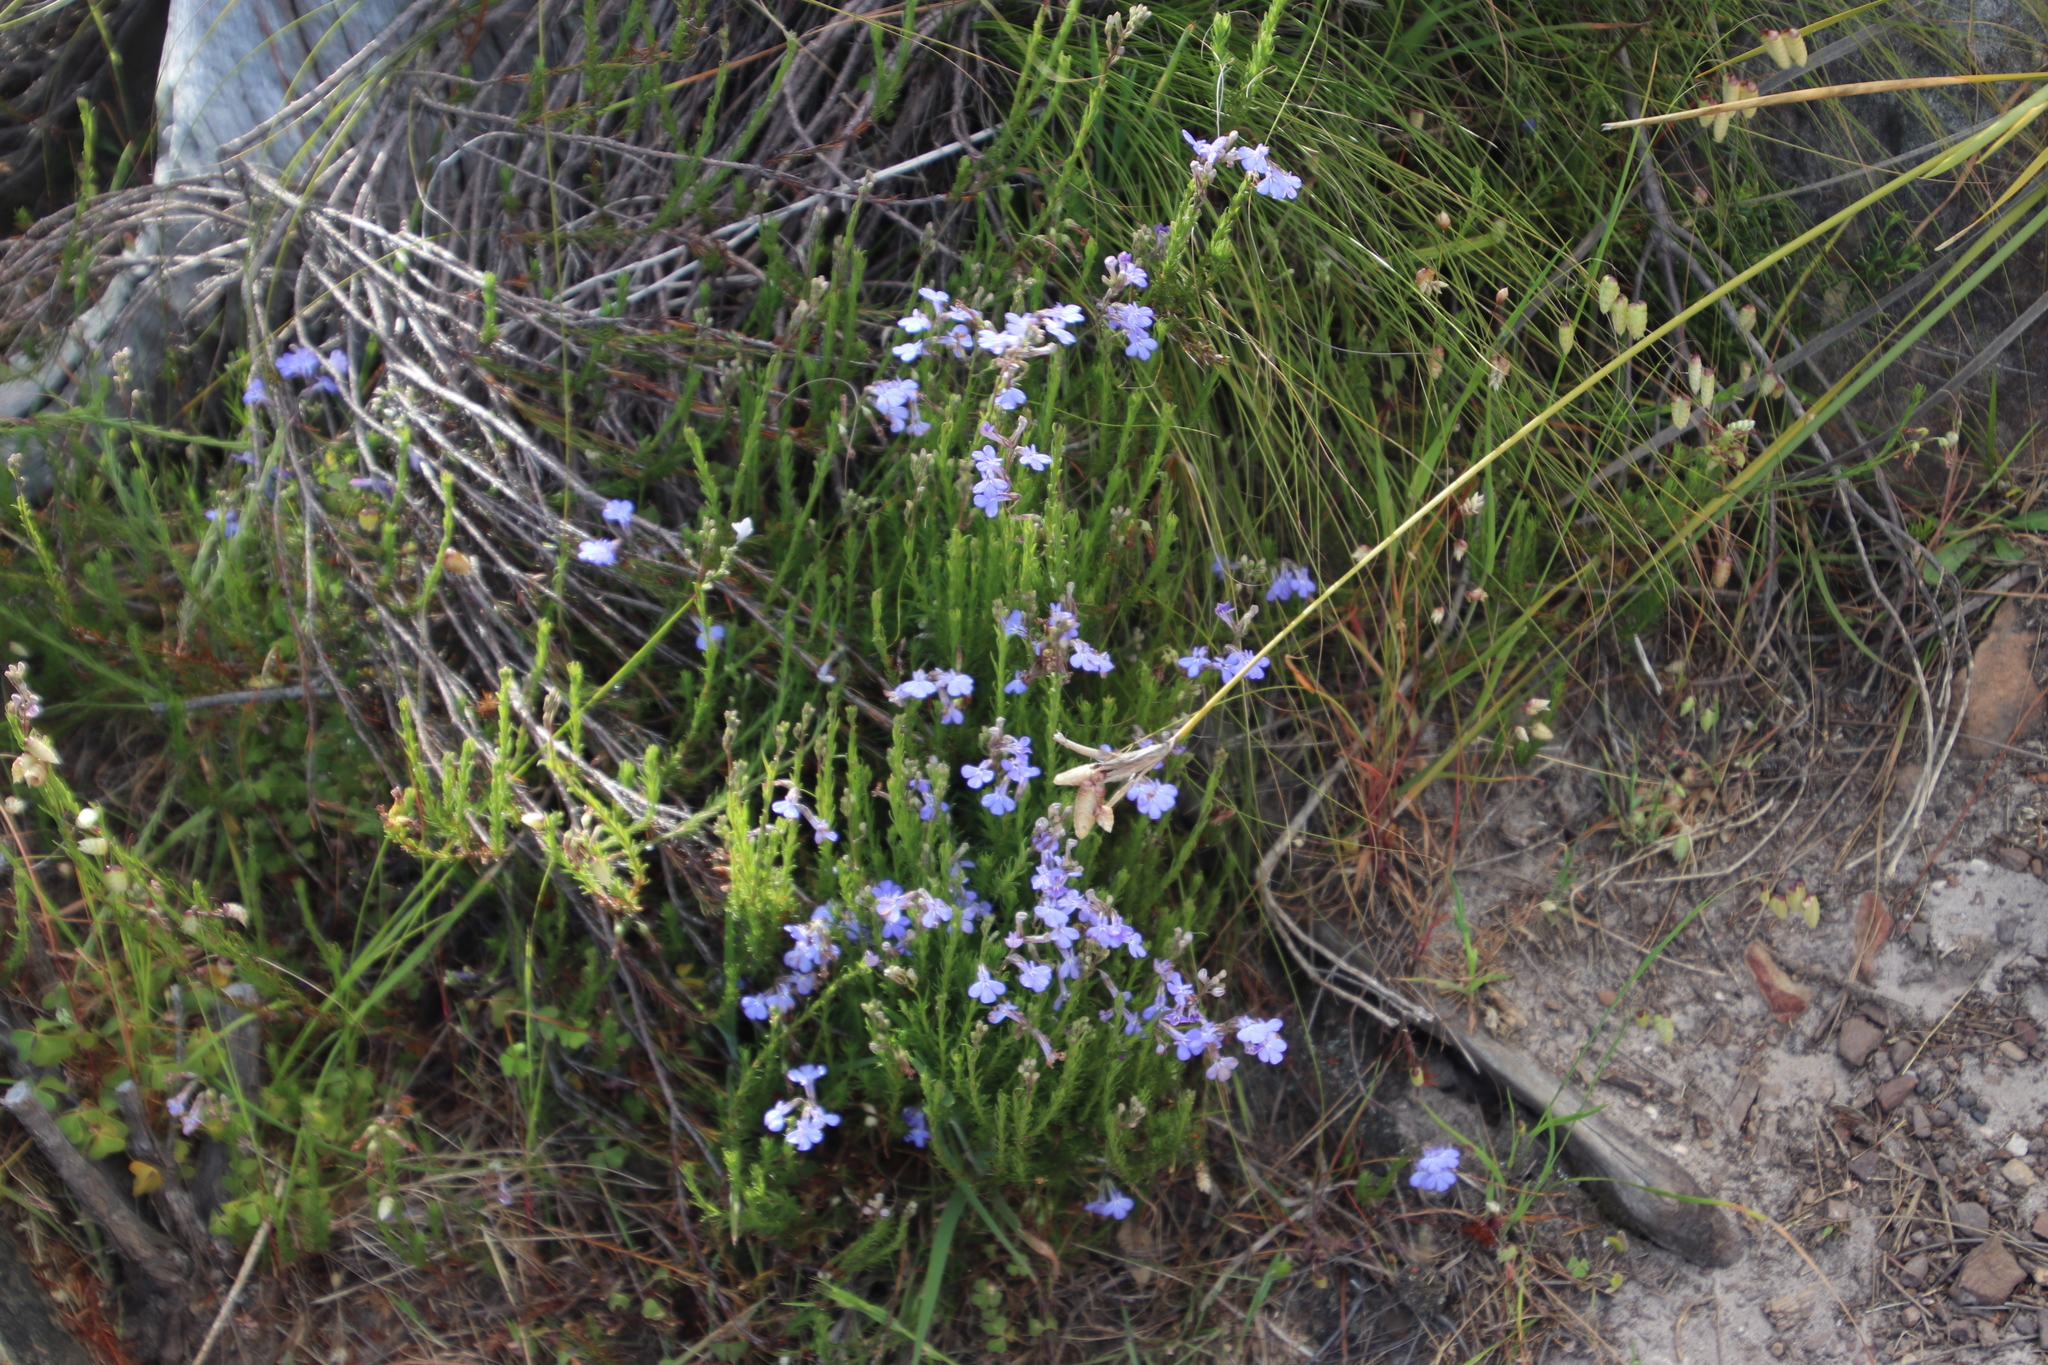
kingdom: Plantae
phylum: Tracheophyta
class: Magnoliopsida
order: Asterales
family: Campanulaceae
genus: Lobelia
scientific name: Lobelia pinifolia
